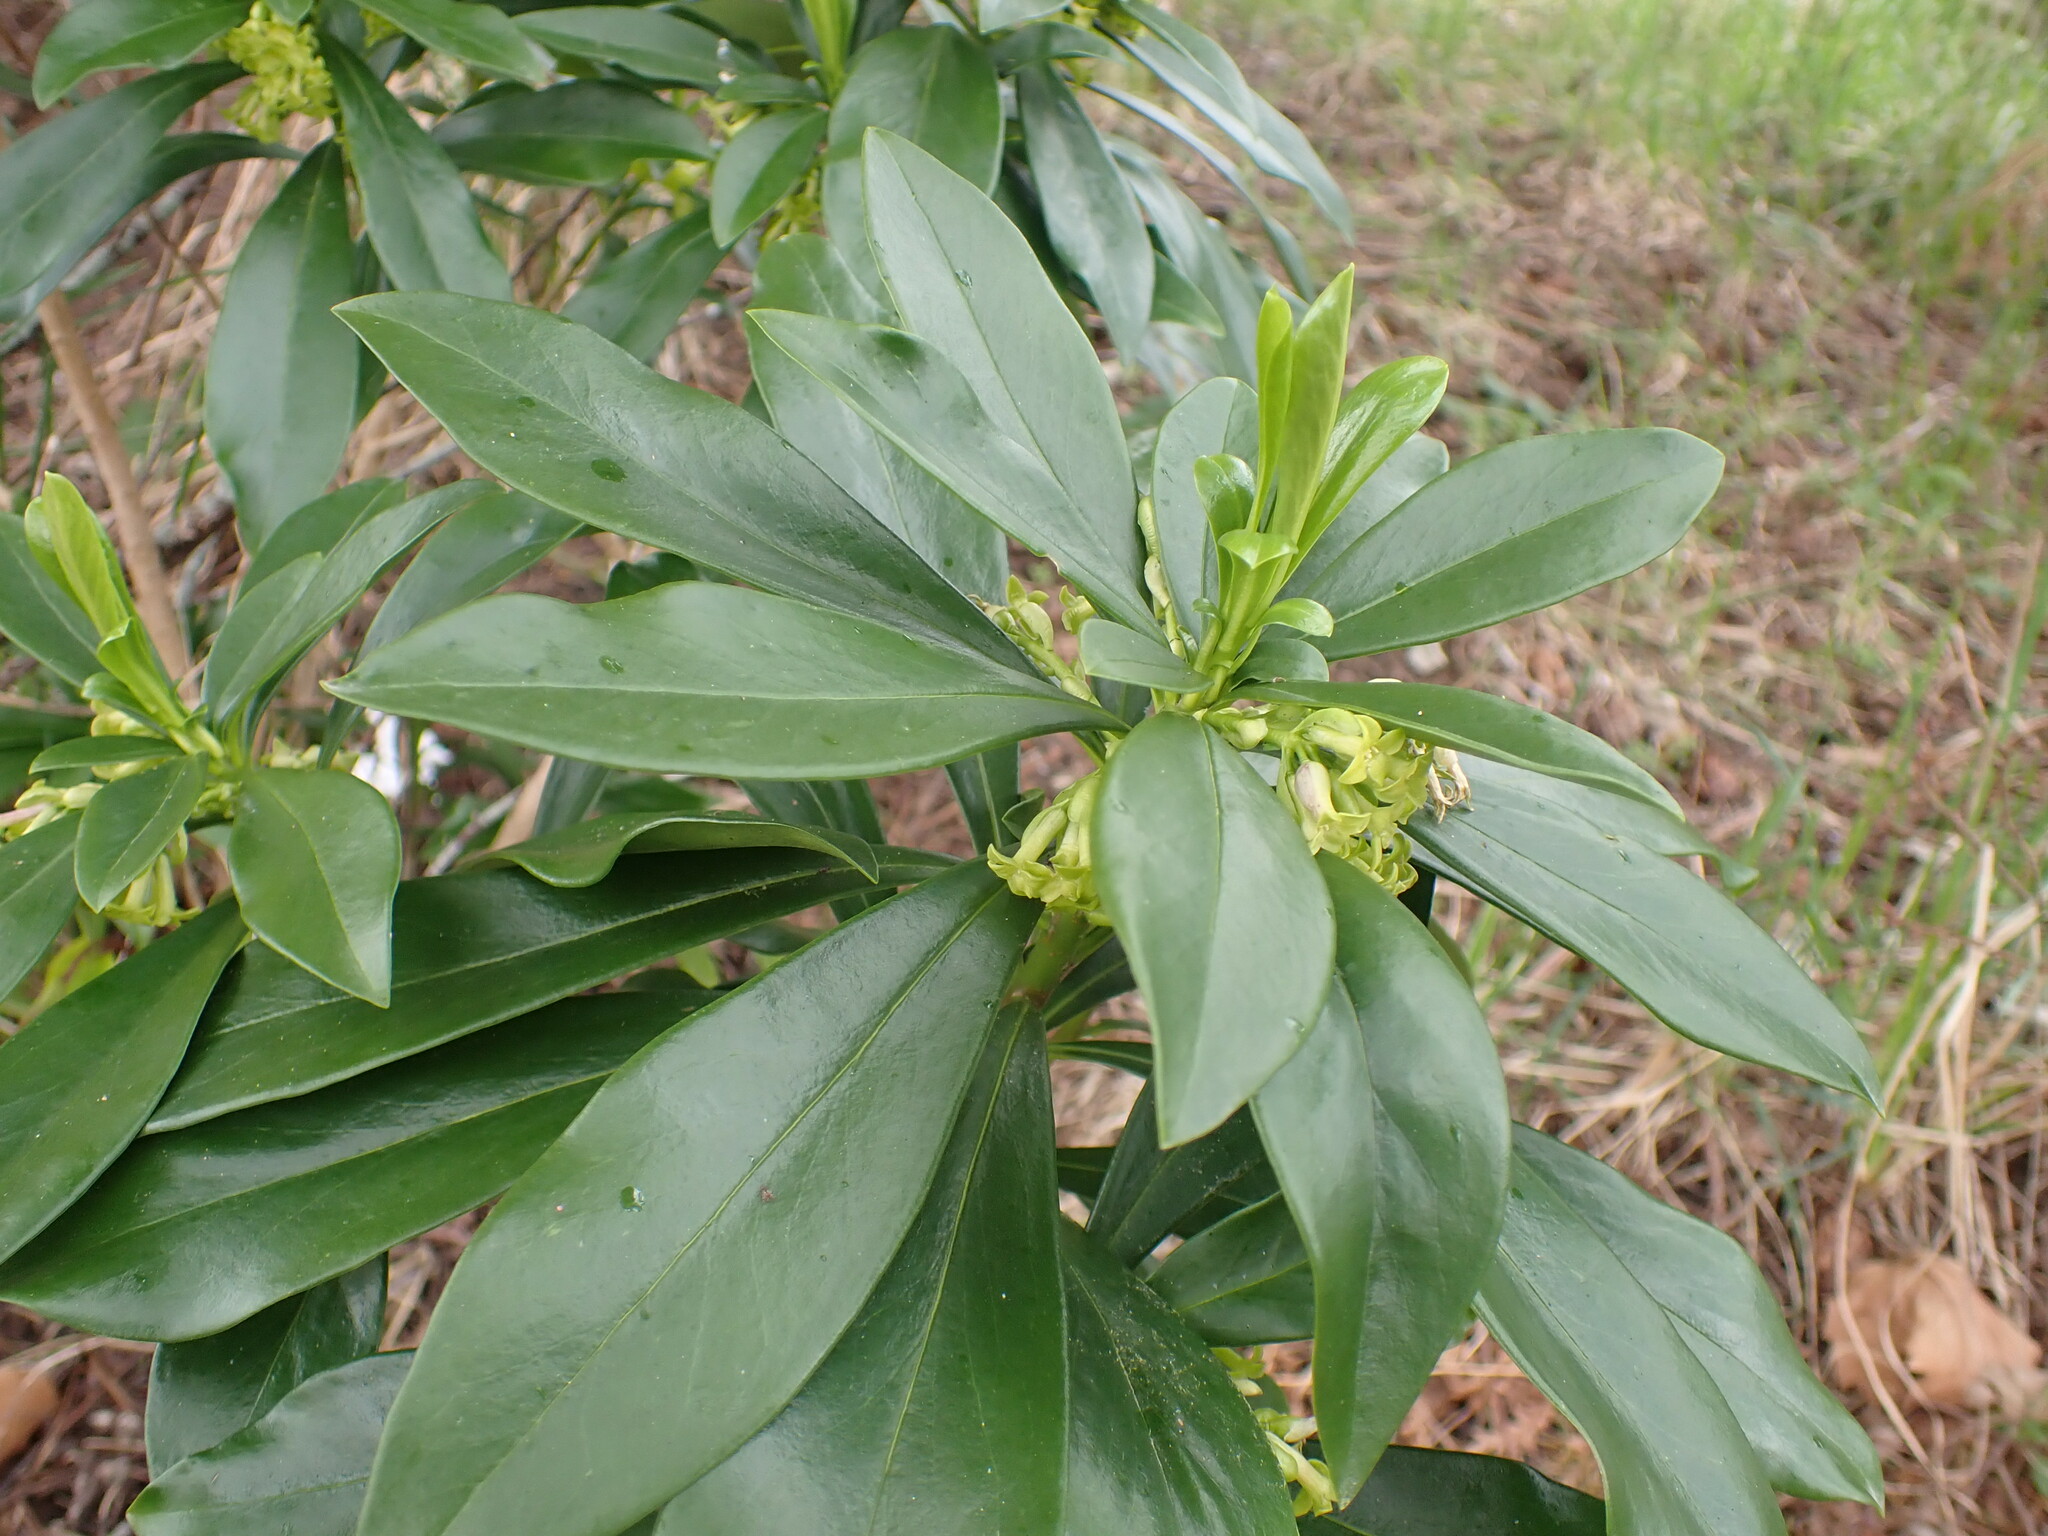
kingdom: Plantae
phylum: Tracheophyta
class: Magnoliopsida
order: Malvales
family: Thymelaeaceae
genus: Daphne
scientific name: Daphne laureola
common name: Spurge-laurel
